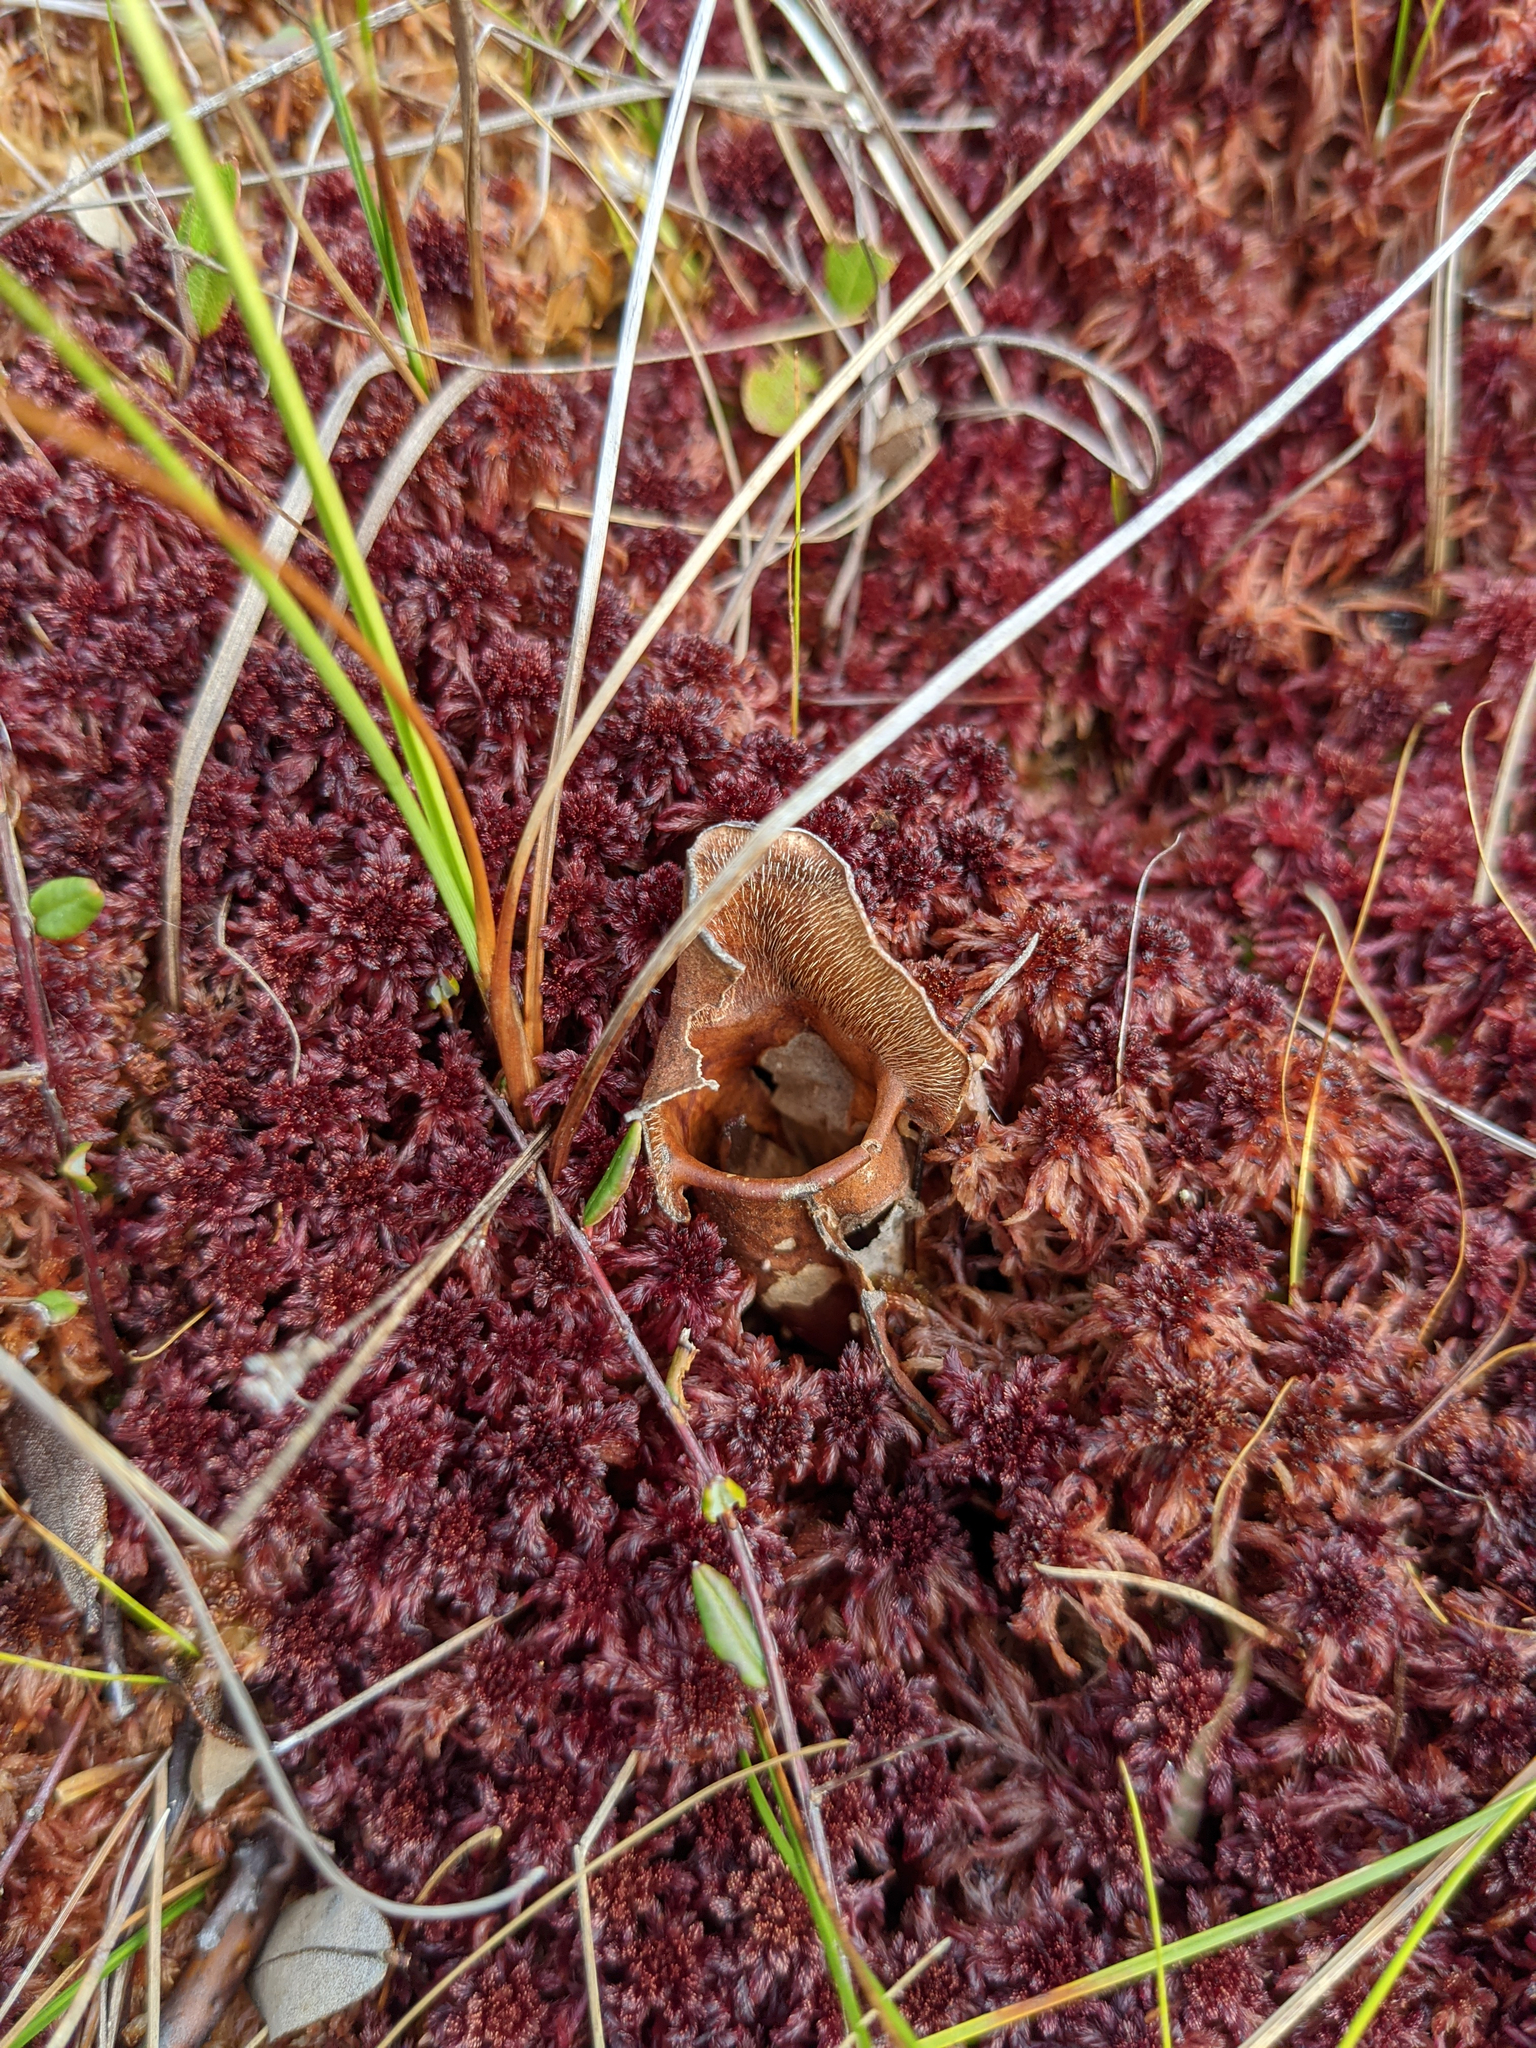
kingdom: Plantae
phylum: Tracheophyta
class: Magnoliopsida
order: Ericales
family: Sarraceniaceae
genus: Sarracenia
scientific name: Sarracenia purpurea
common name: Pitcherplant
